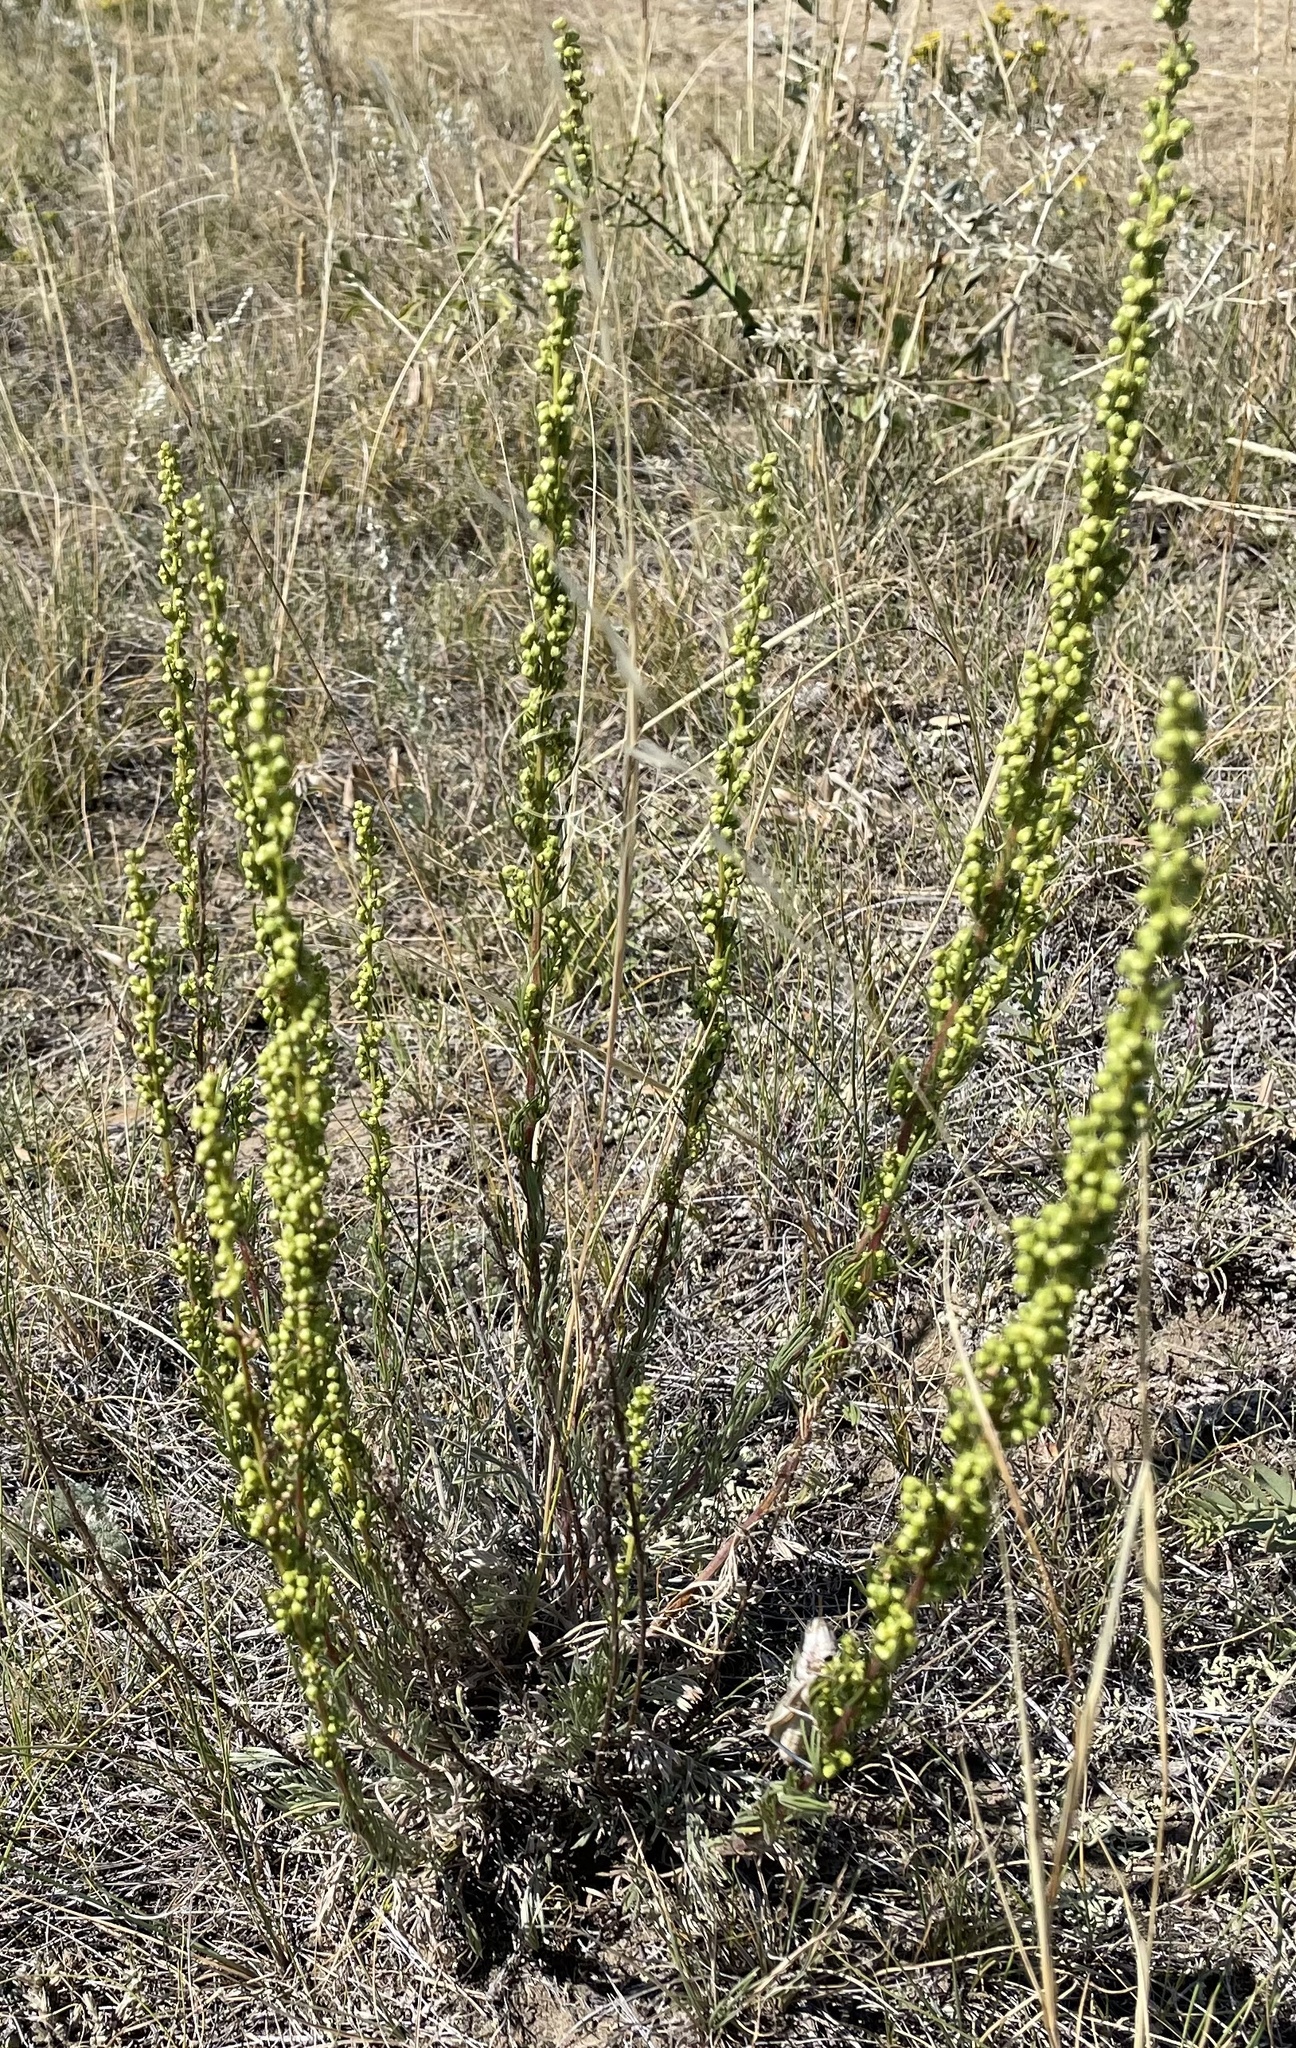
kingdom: Plantae
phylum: Tracheophyta
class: Magnoliopsida
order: Asterales
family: Asteraceae
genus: Artemisia
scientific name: Artemisia campestris
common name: Field wormwood
